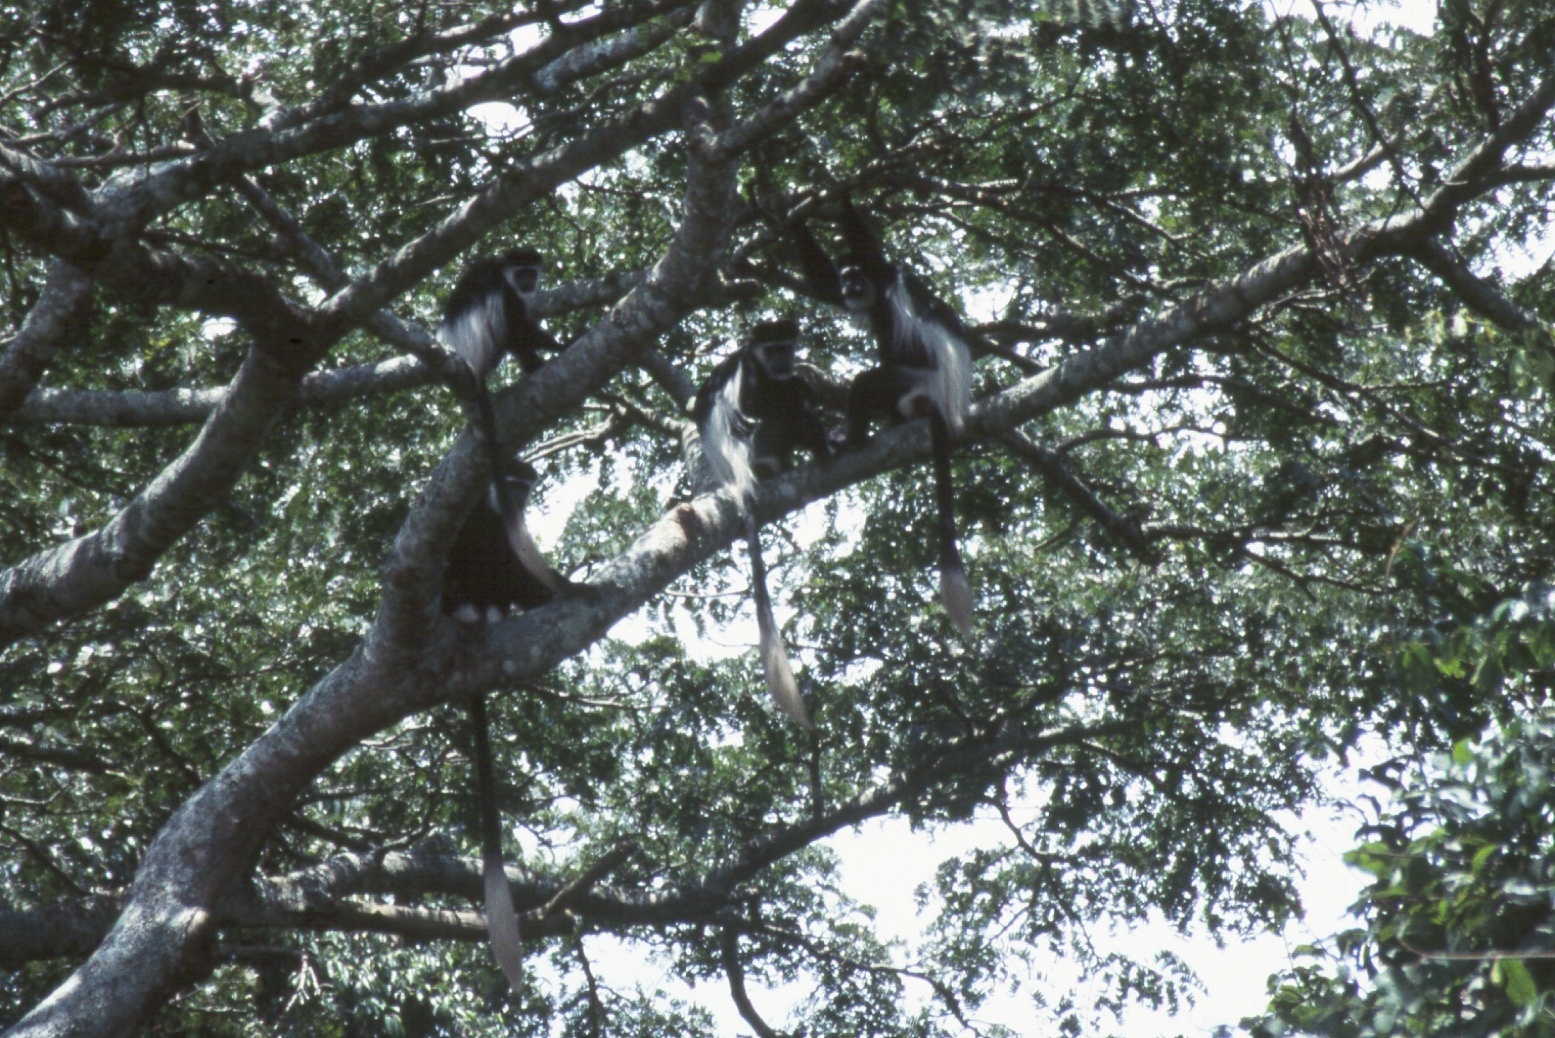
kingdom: Animalia
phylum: Chordata
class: Mammalia
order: Primates
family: Cercopithecidae
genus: Colobus
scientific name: Colobus guereza
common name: Mantled guereza
